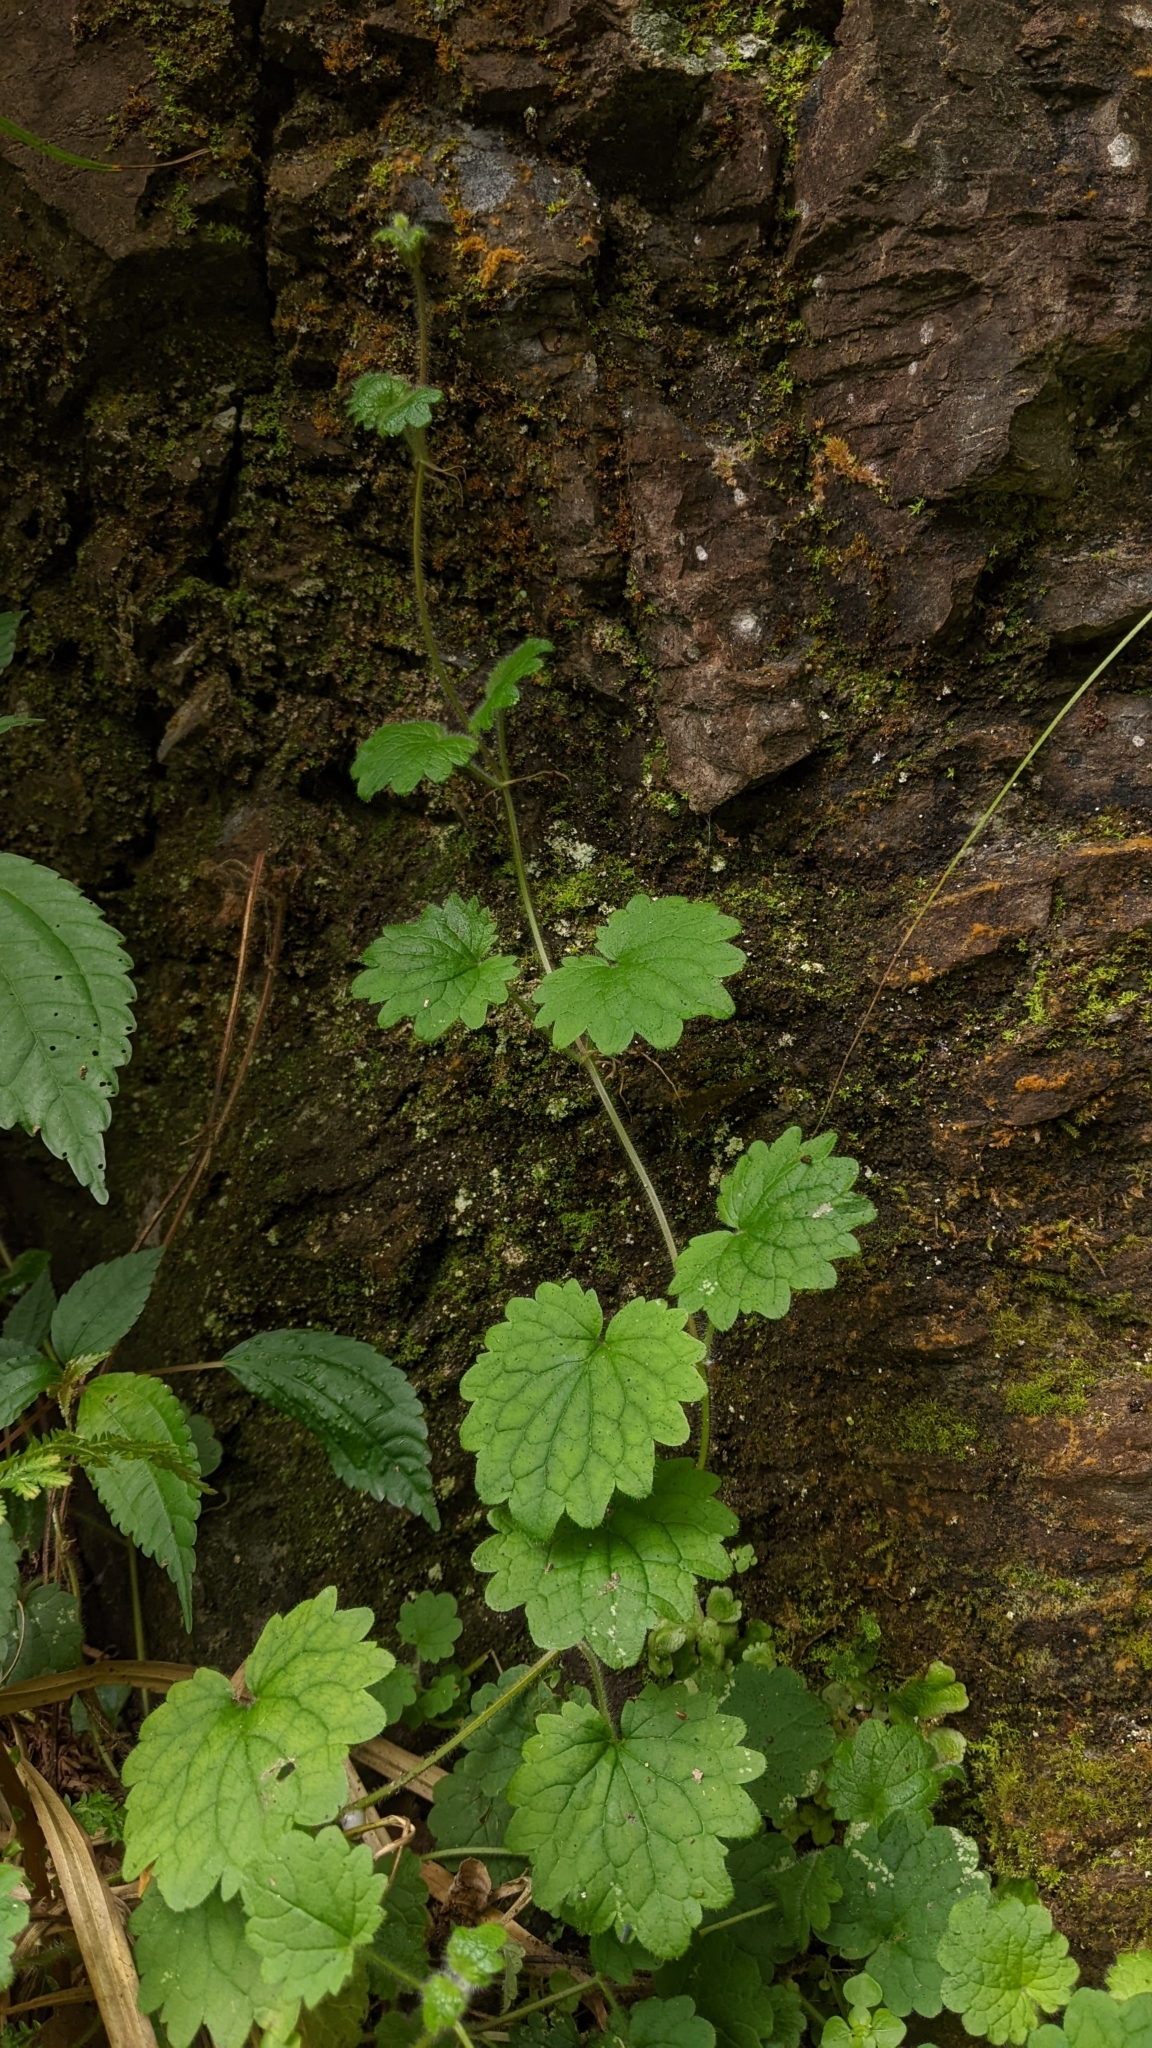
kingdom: Plantae
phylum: Tracheophyta
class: Magnoliopsida
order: Lamiales
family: Lamiaceae
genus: Suzukia
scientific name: Suzukia shikikunensis
